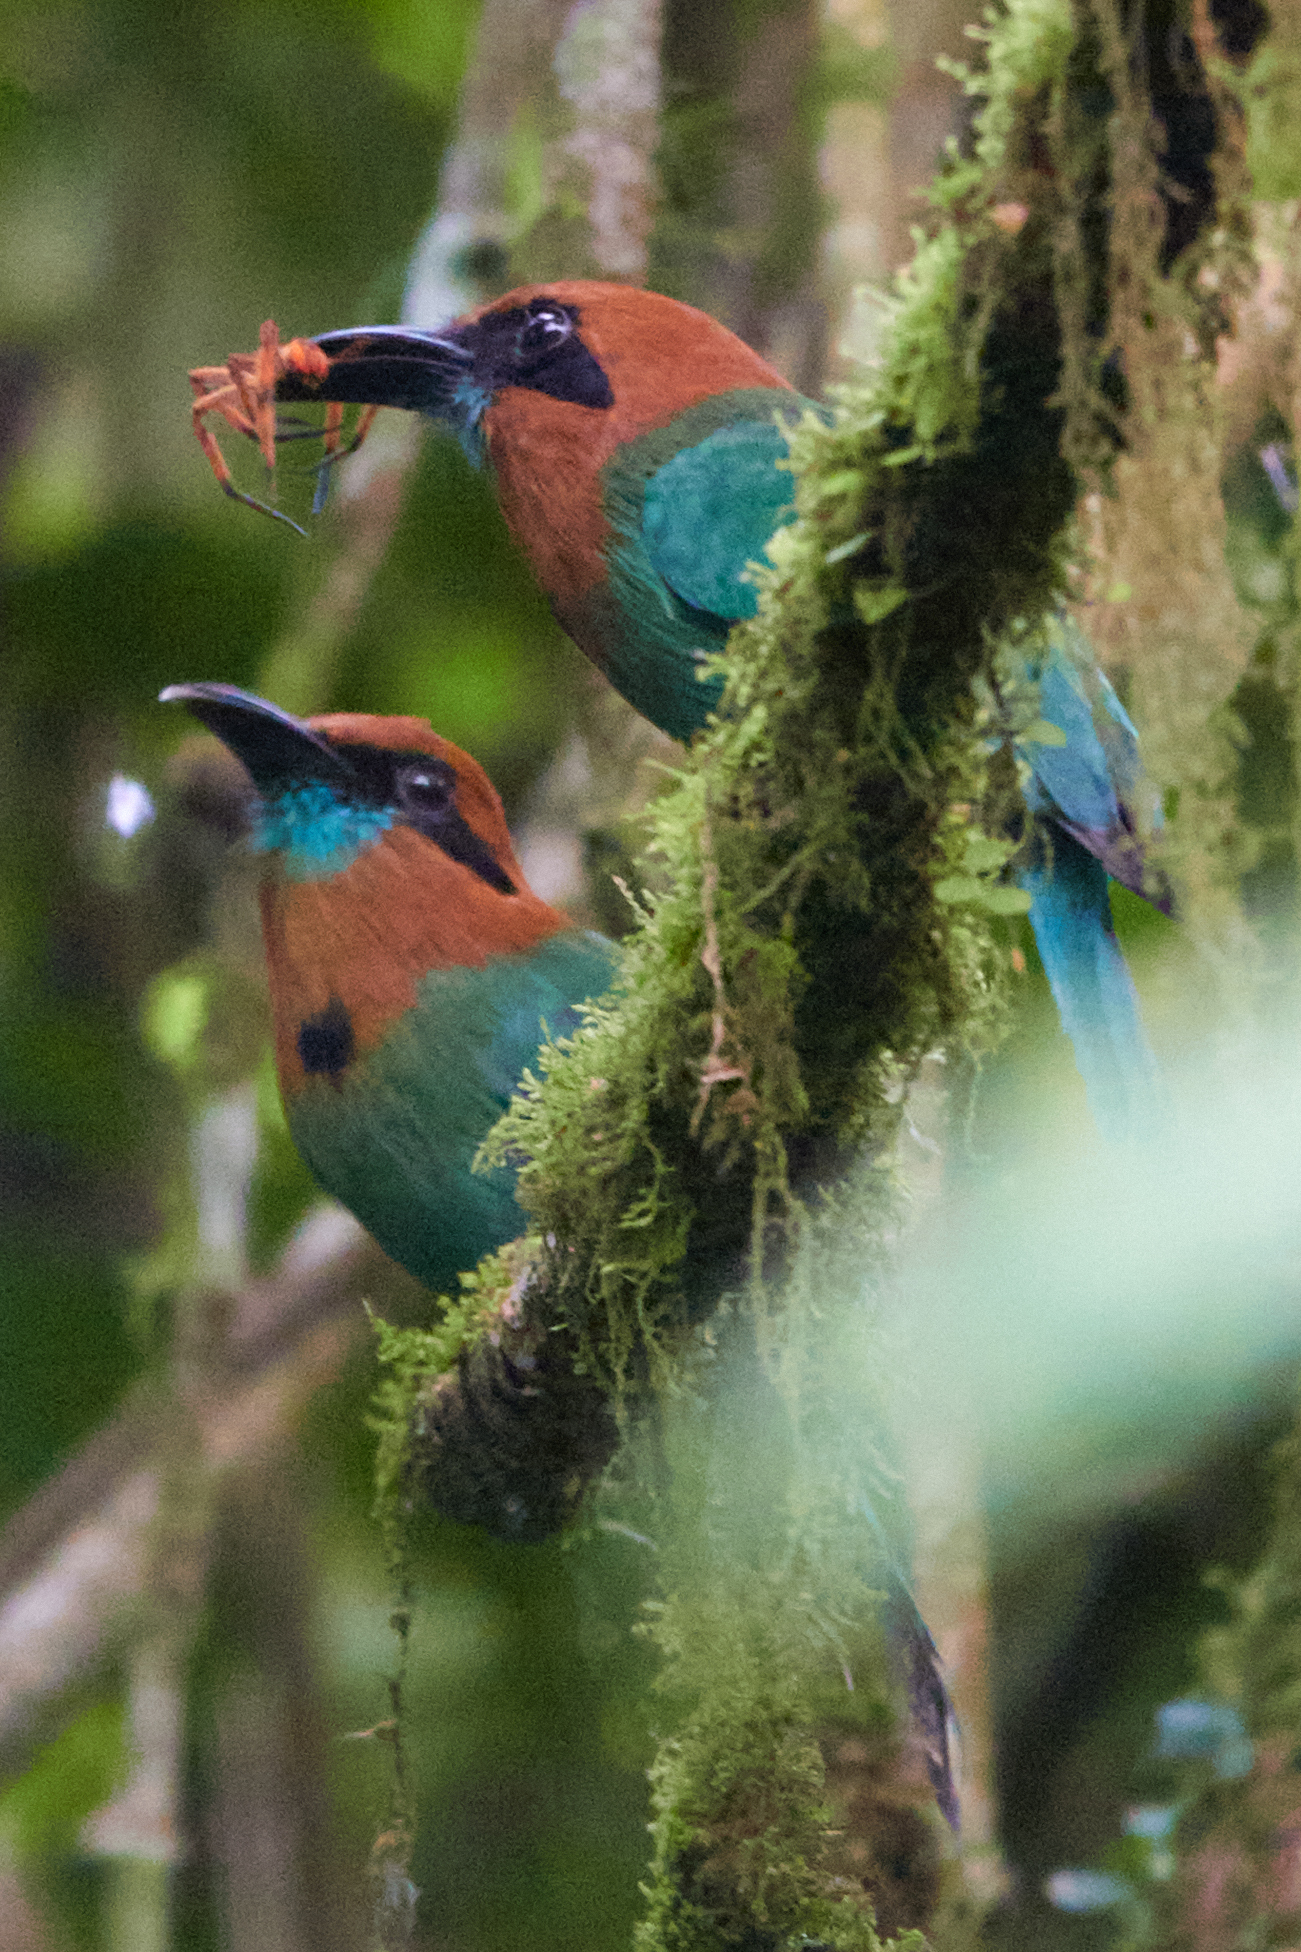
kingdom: Animalia
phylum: Chordata
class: Aves
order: Coraciiformes
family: Momotidae
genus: Electron
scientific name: Electron platyrhynchum
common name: Broad-billed motmot
